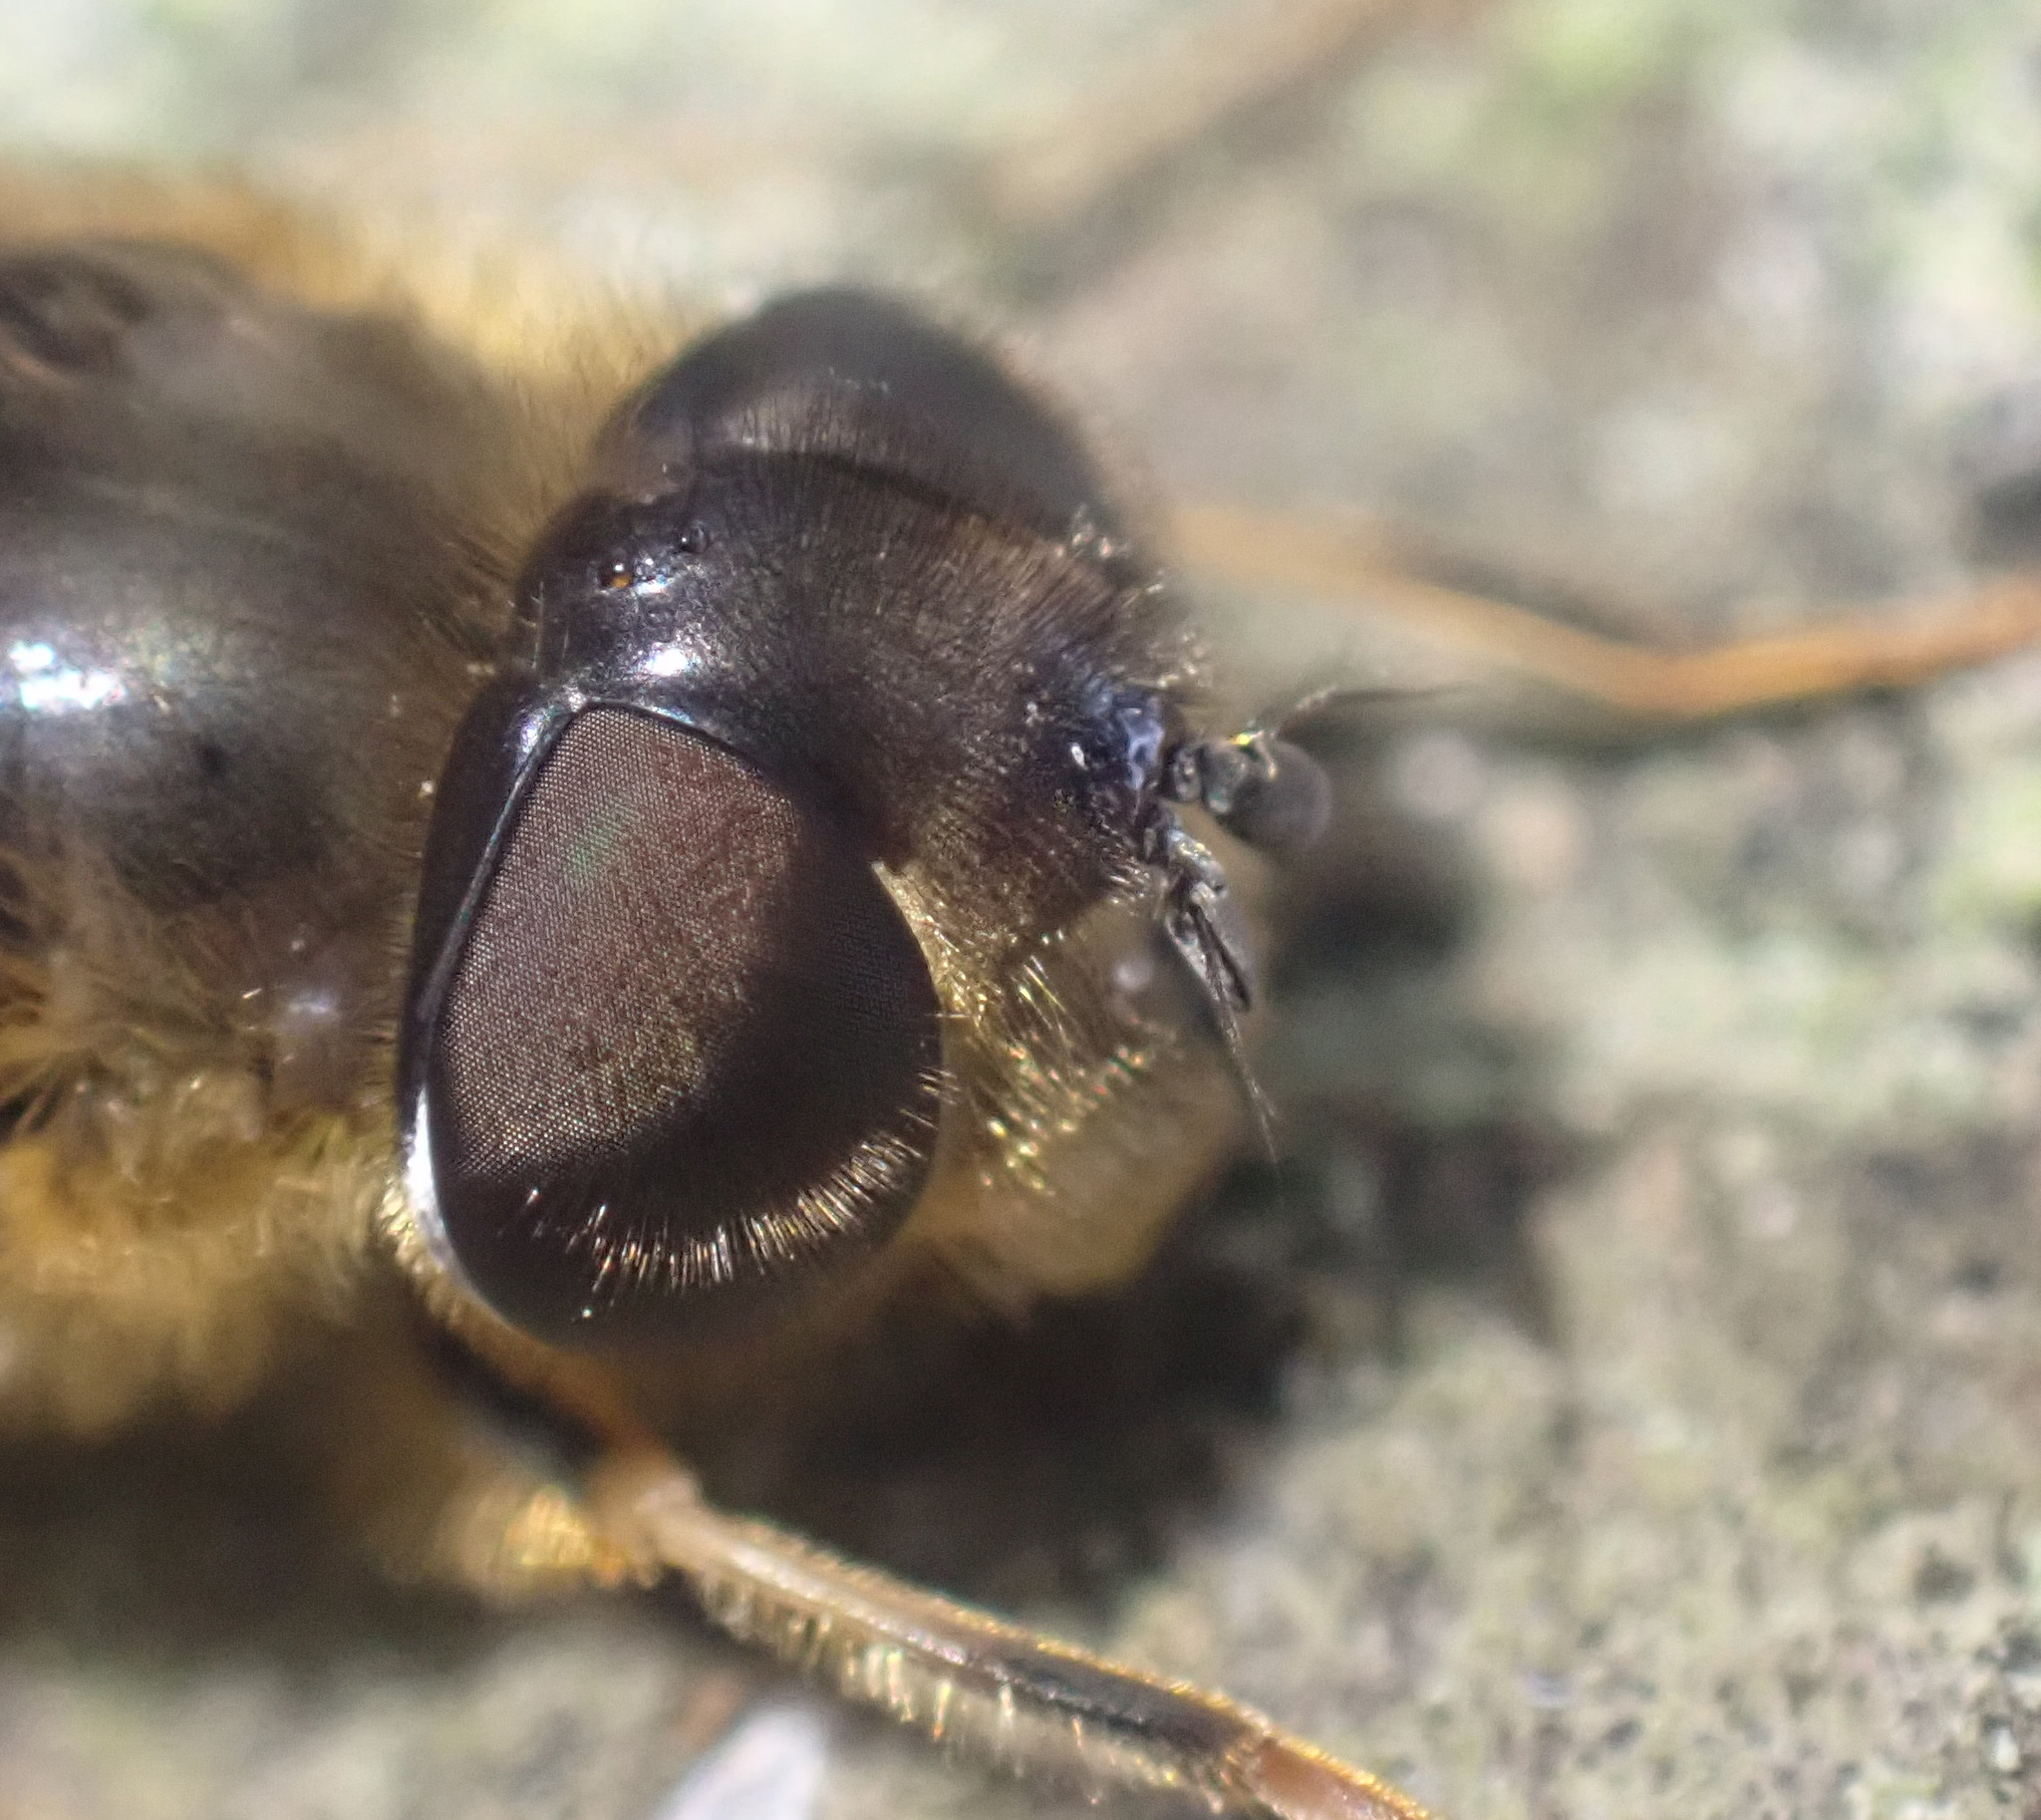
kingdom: Animalia
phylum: Arthropoda
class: Insecta
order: Diptera
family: Syrphidae
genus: Eristalis
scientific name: Eristalis pertinax
